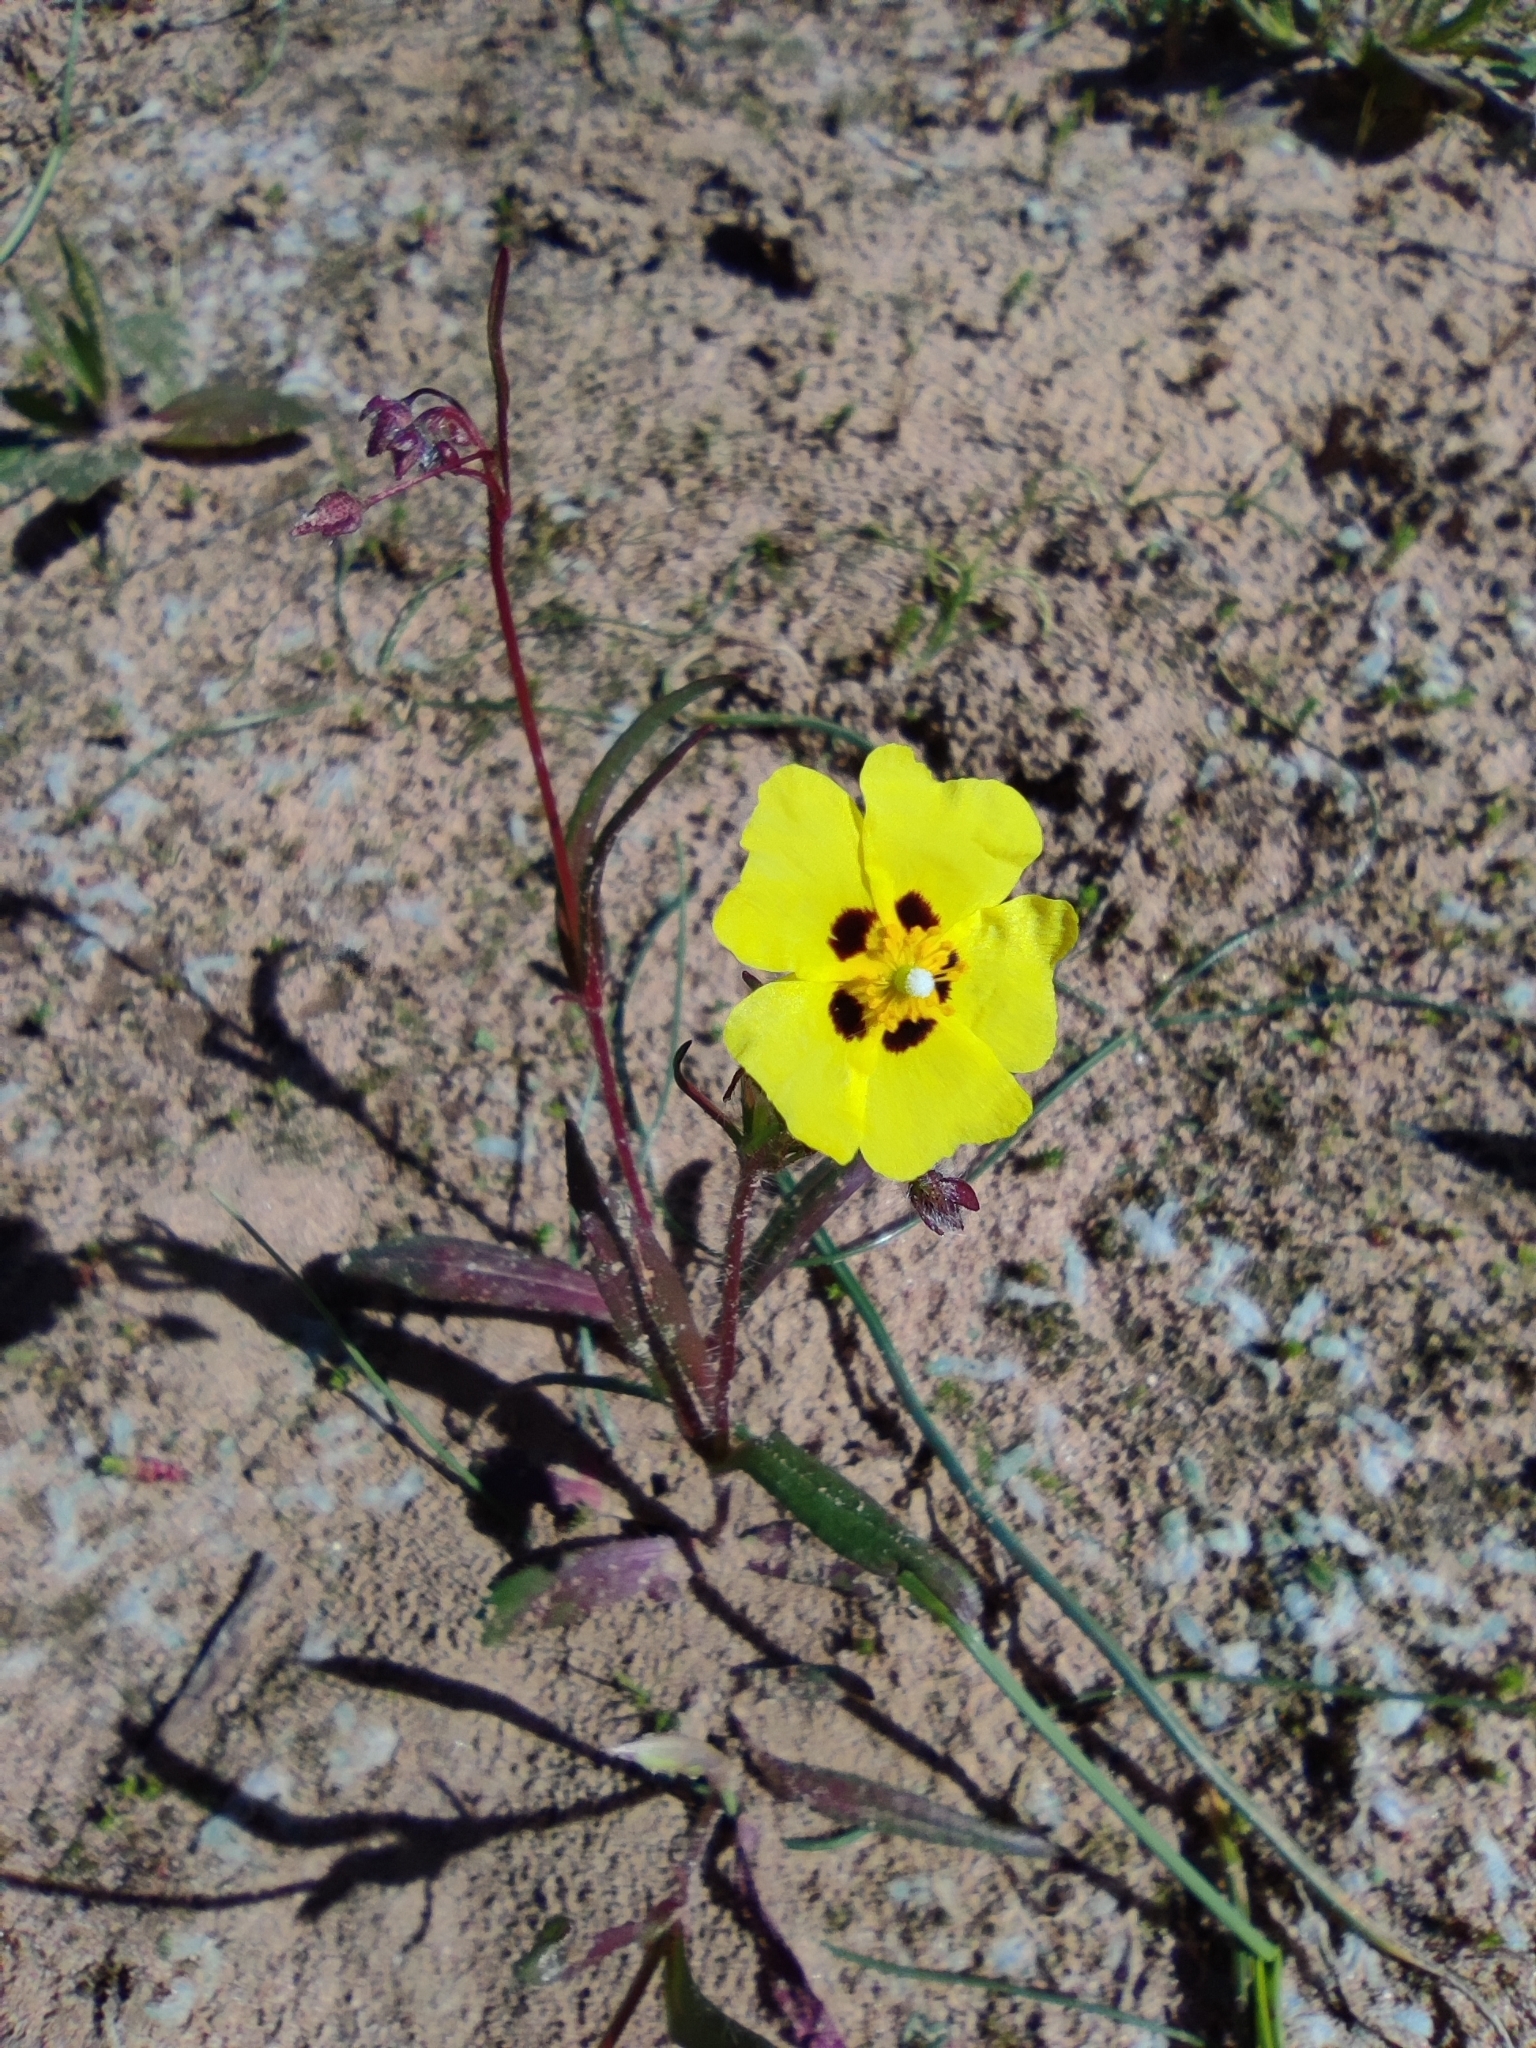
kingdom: Plantae
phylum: Tracheophyta
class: Magnoliopsida
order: Malvales
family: Cistaceae
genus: Tuberaria
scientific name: Tuberaria guttata
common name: Spotted rock-rose
